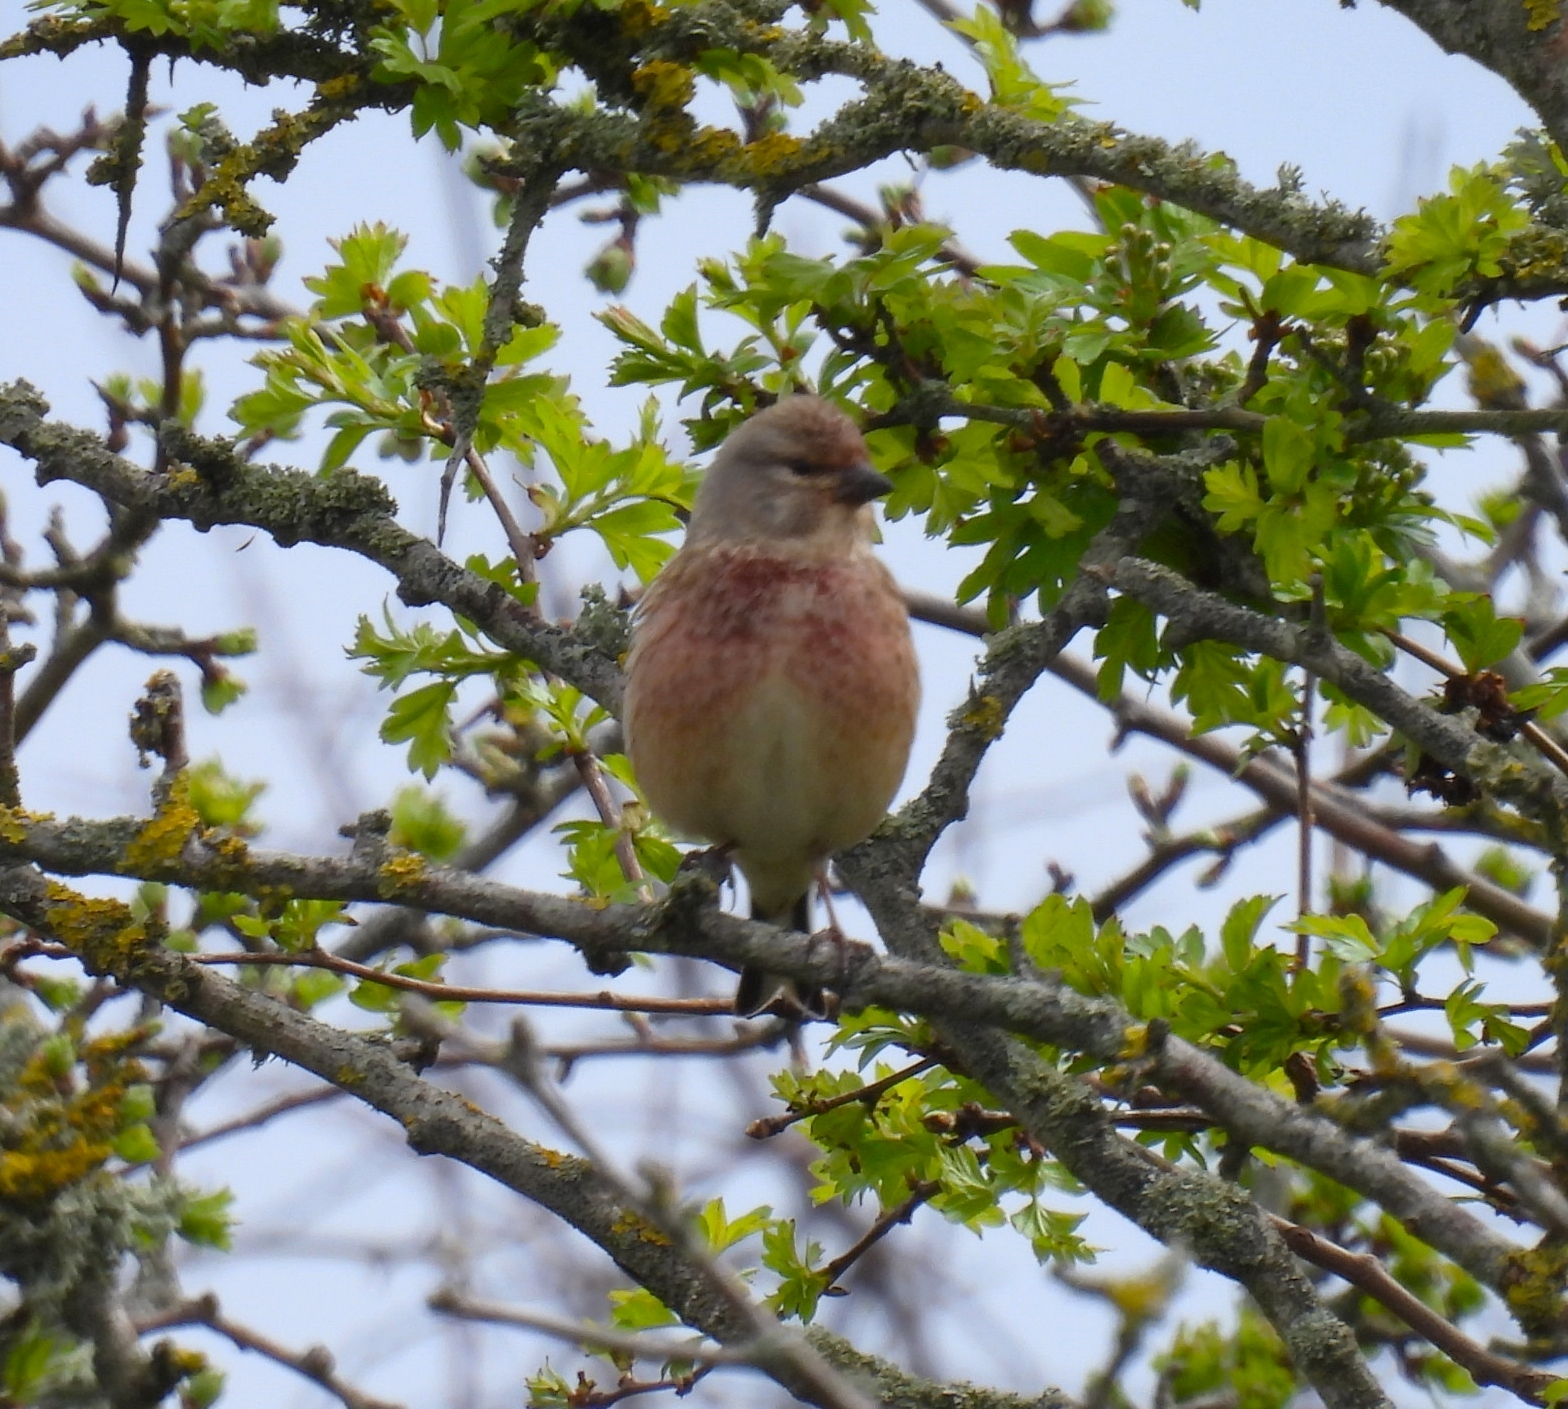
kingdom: Animalia
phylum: Chordata
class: Aves
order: Passeriformes
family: Fringillidae
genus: Linaria
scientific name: Linaria cannabina
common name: Common linnet
